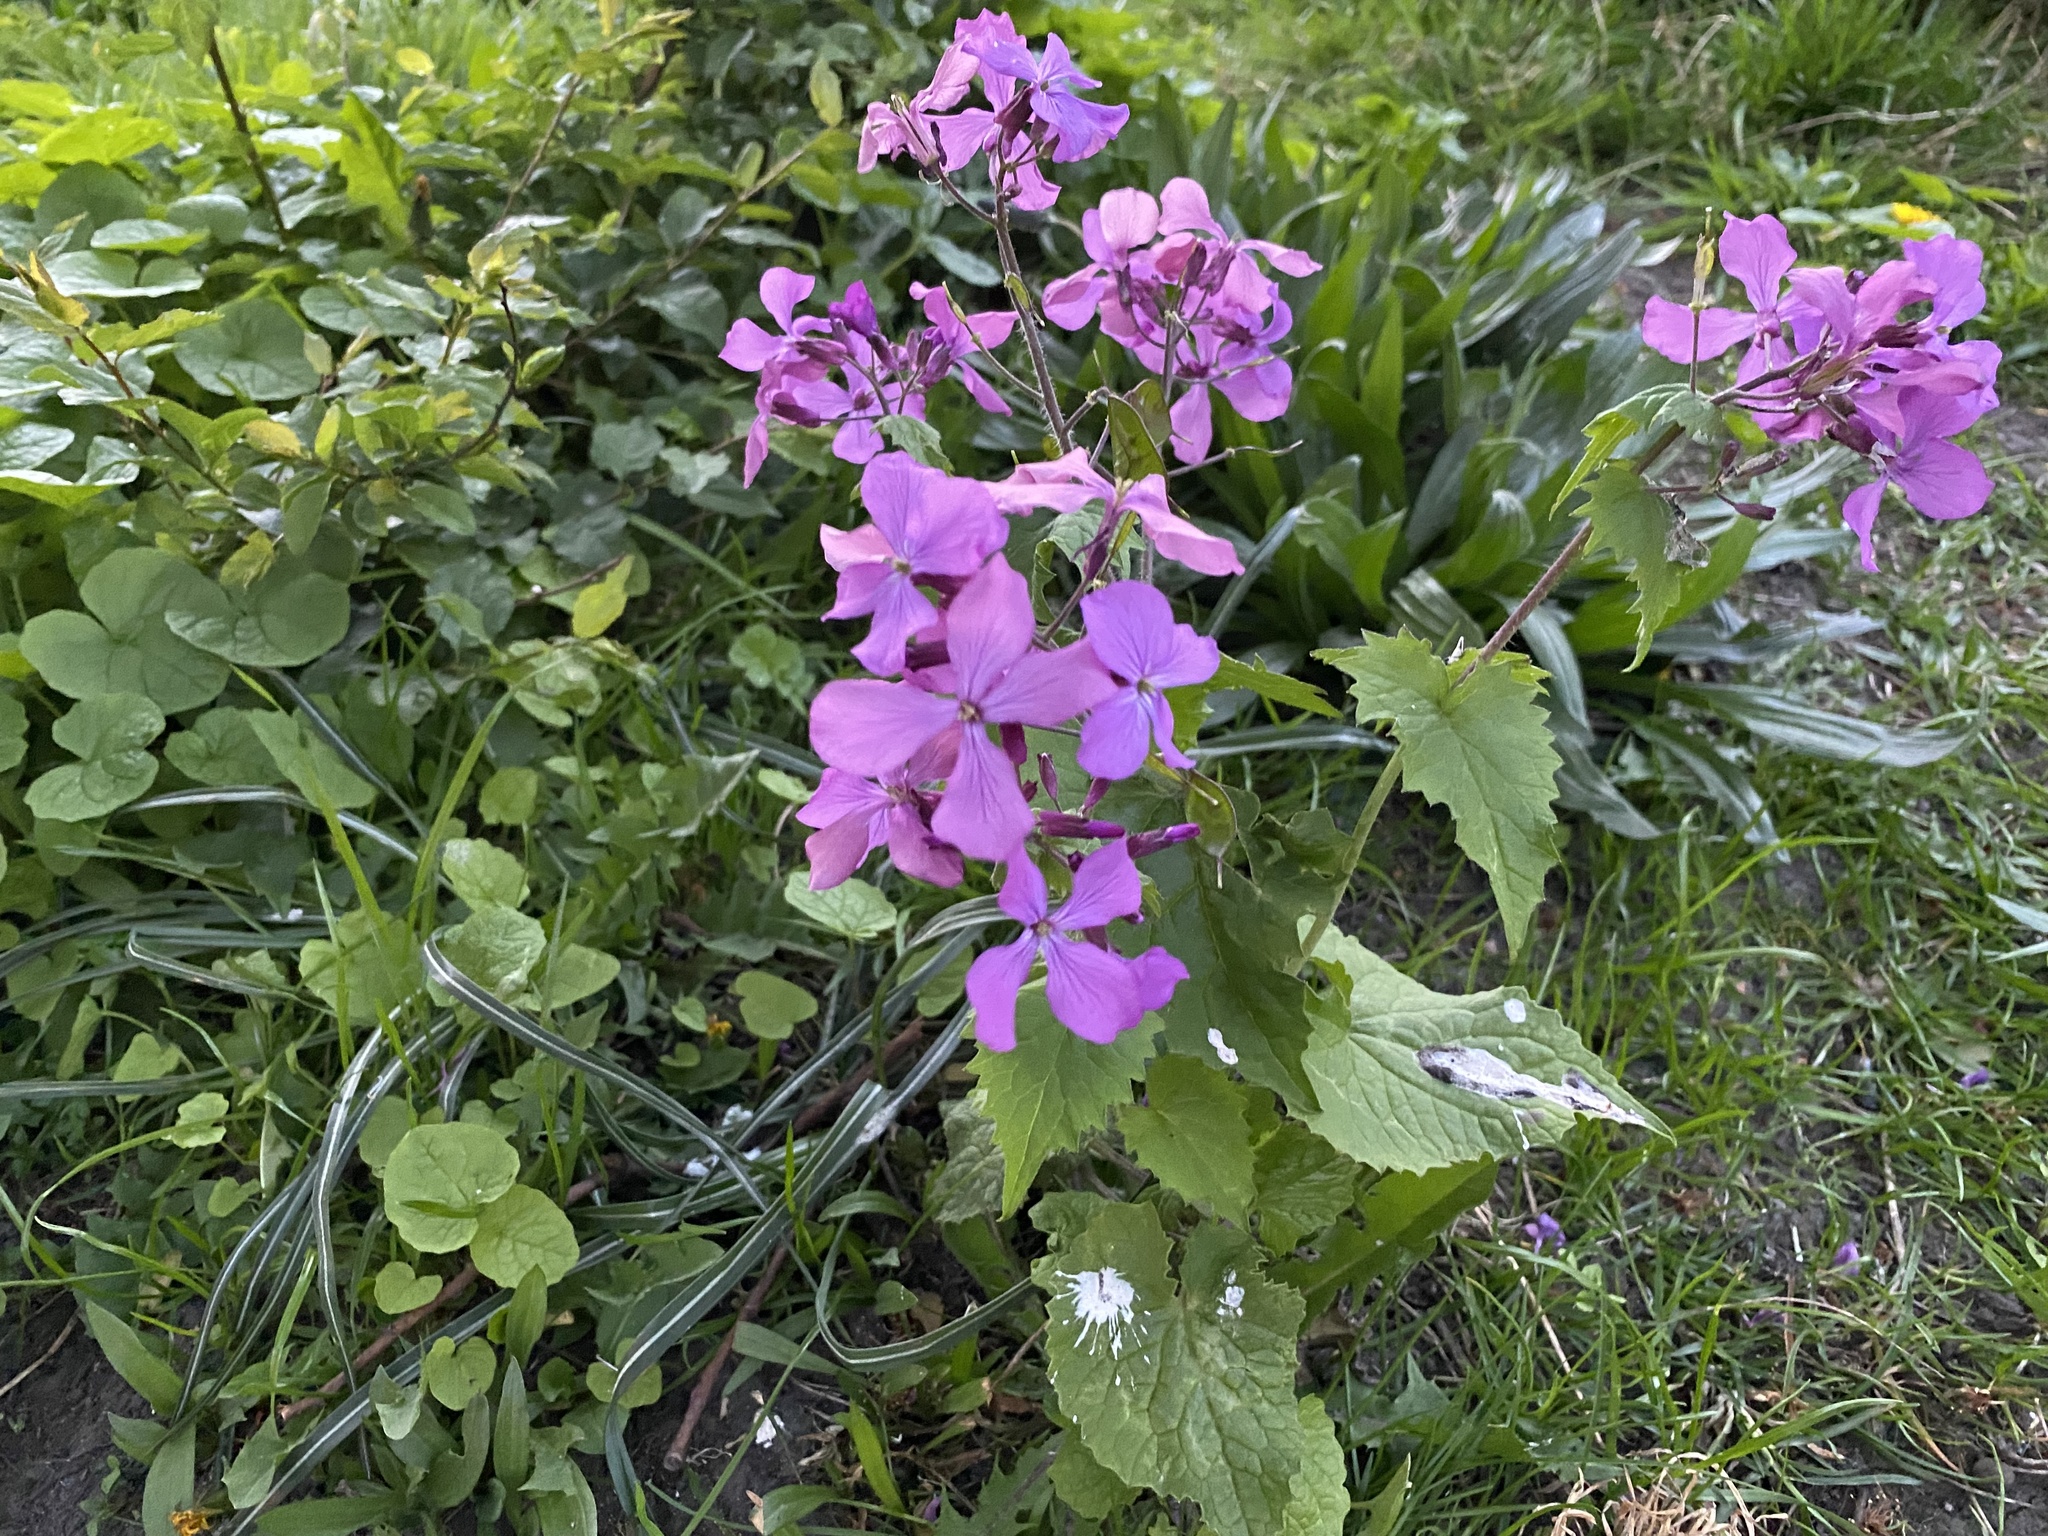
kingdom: Plantae
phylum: Tracheophyta
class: Magnoliopsida
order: Brassicales
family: Brassicaceae
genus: Lunaria
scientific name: Lunaria annua
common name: Honesty
